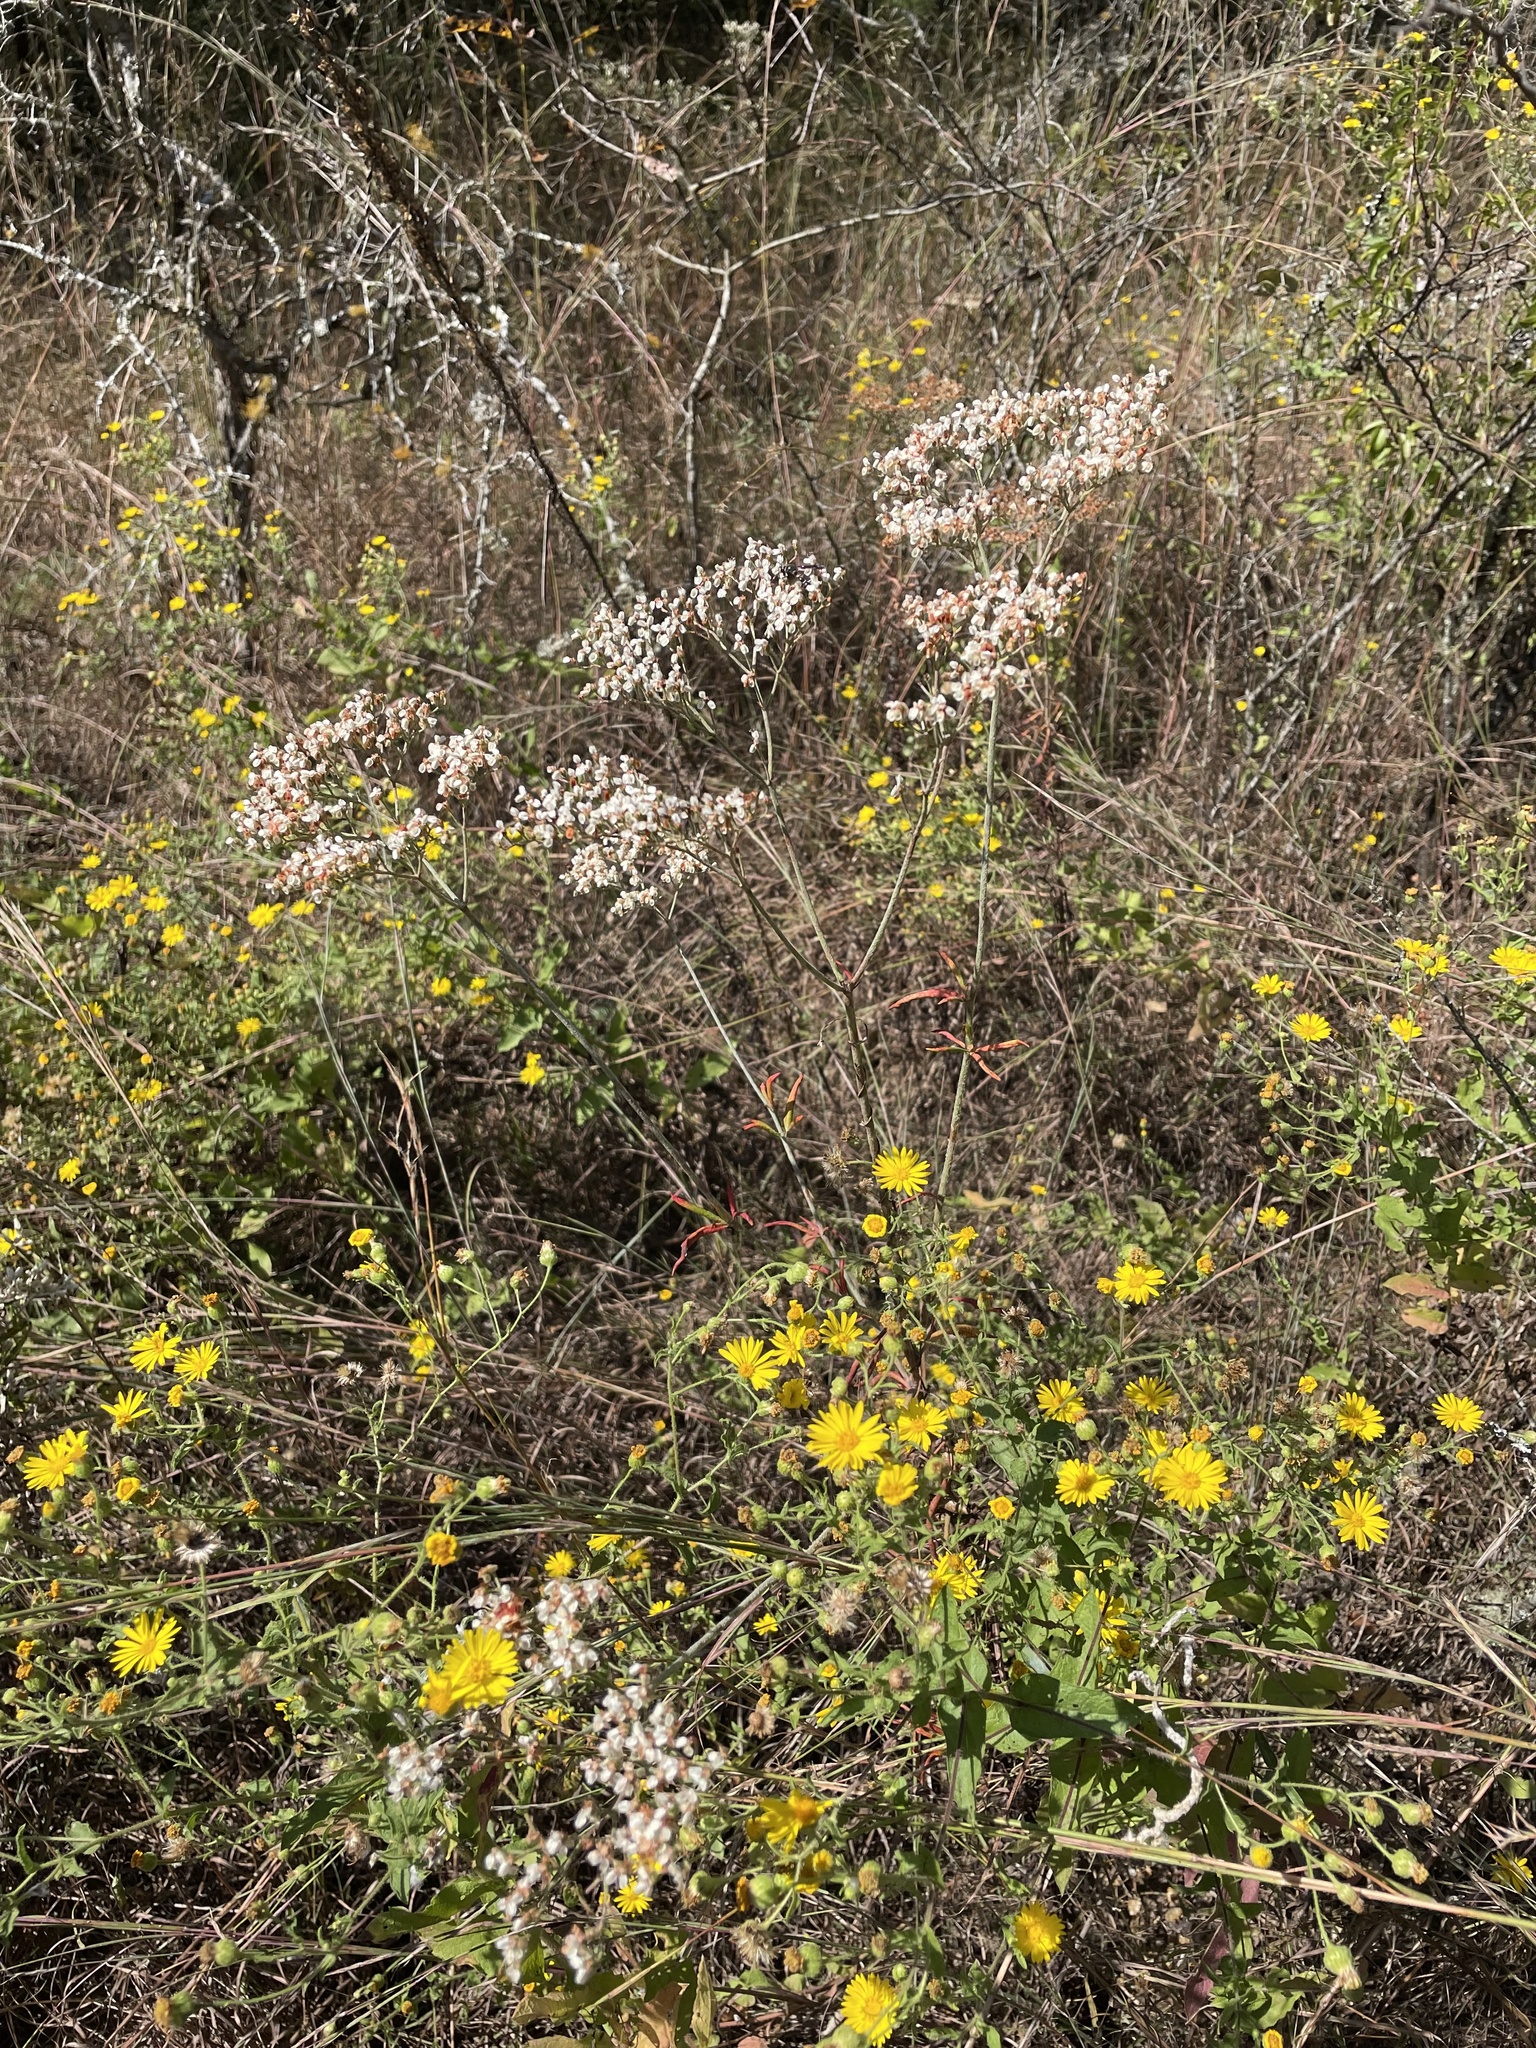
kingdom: Plantae
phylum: Tracheophyta
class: Magnoliopsida
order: Caryophyllales
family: Polygonaceae
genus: Eriogonum
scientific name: Eriogonum multiflorum
